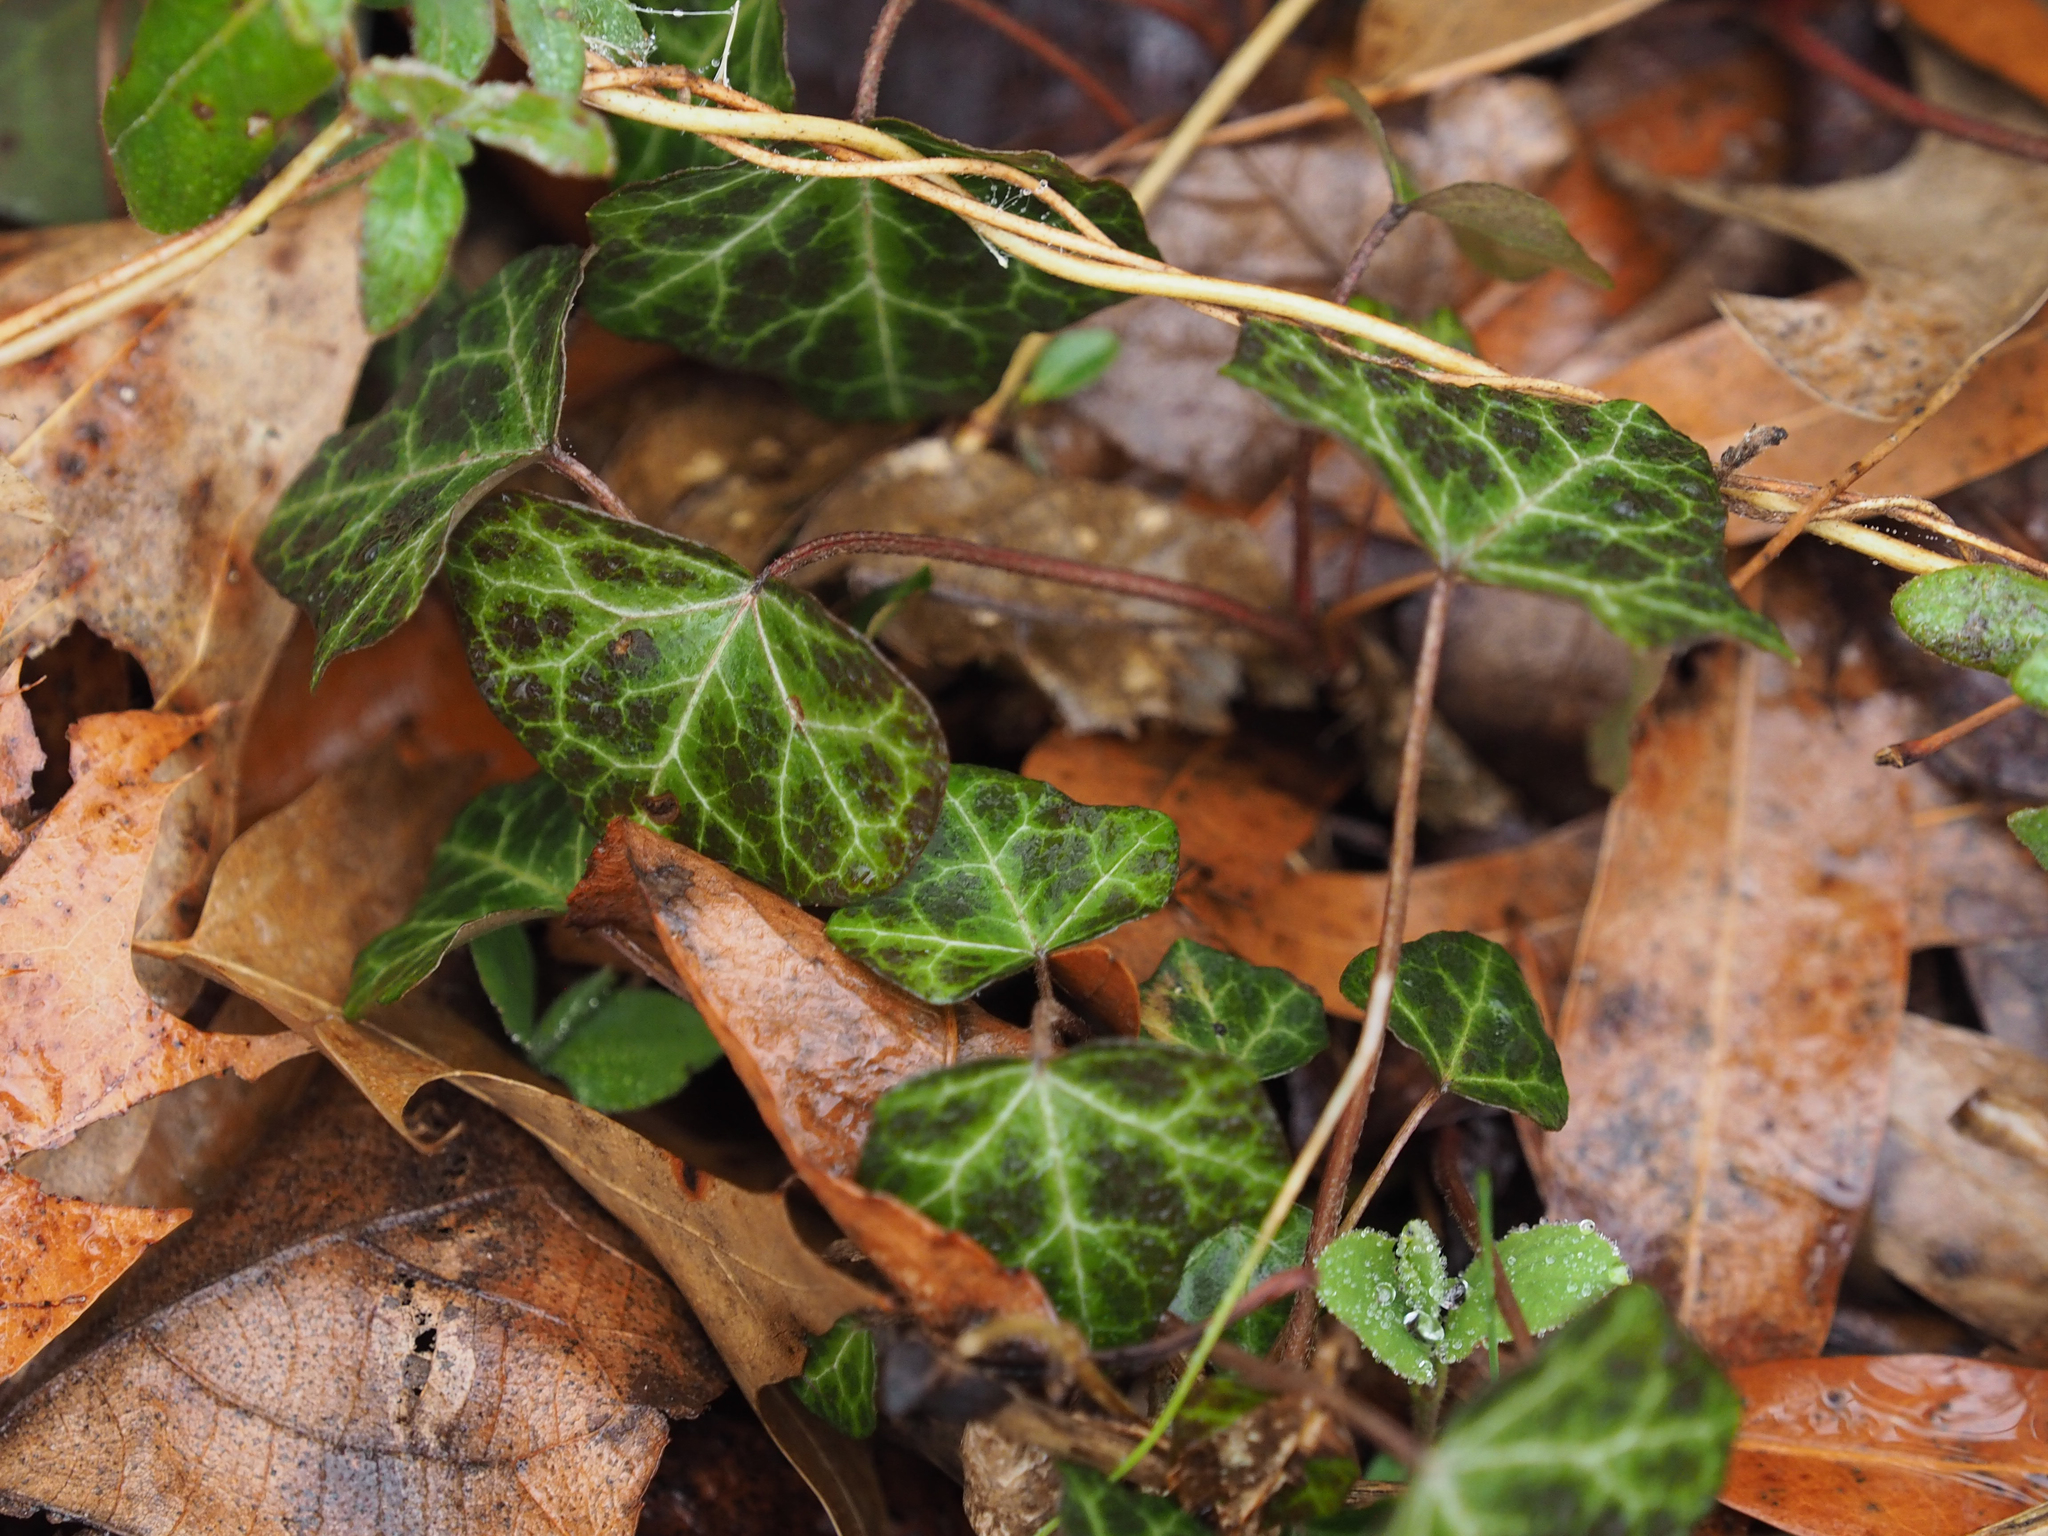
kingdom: Plantae
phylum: Tracheophyta
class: Magnoliopsida
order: Apiales
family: Araliaceae
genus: Hedera
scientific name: Hedera helix
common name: Ivy
